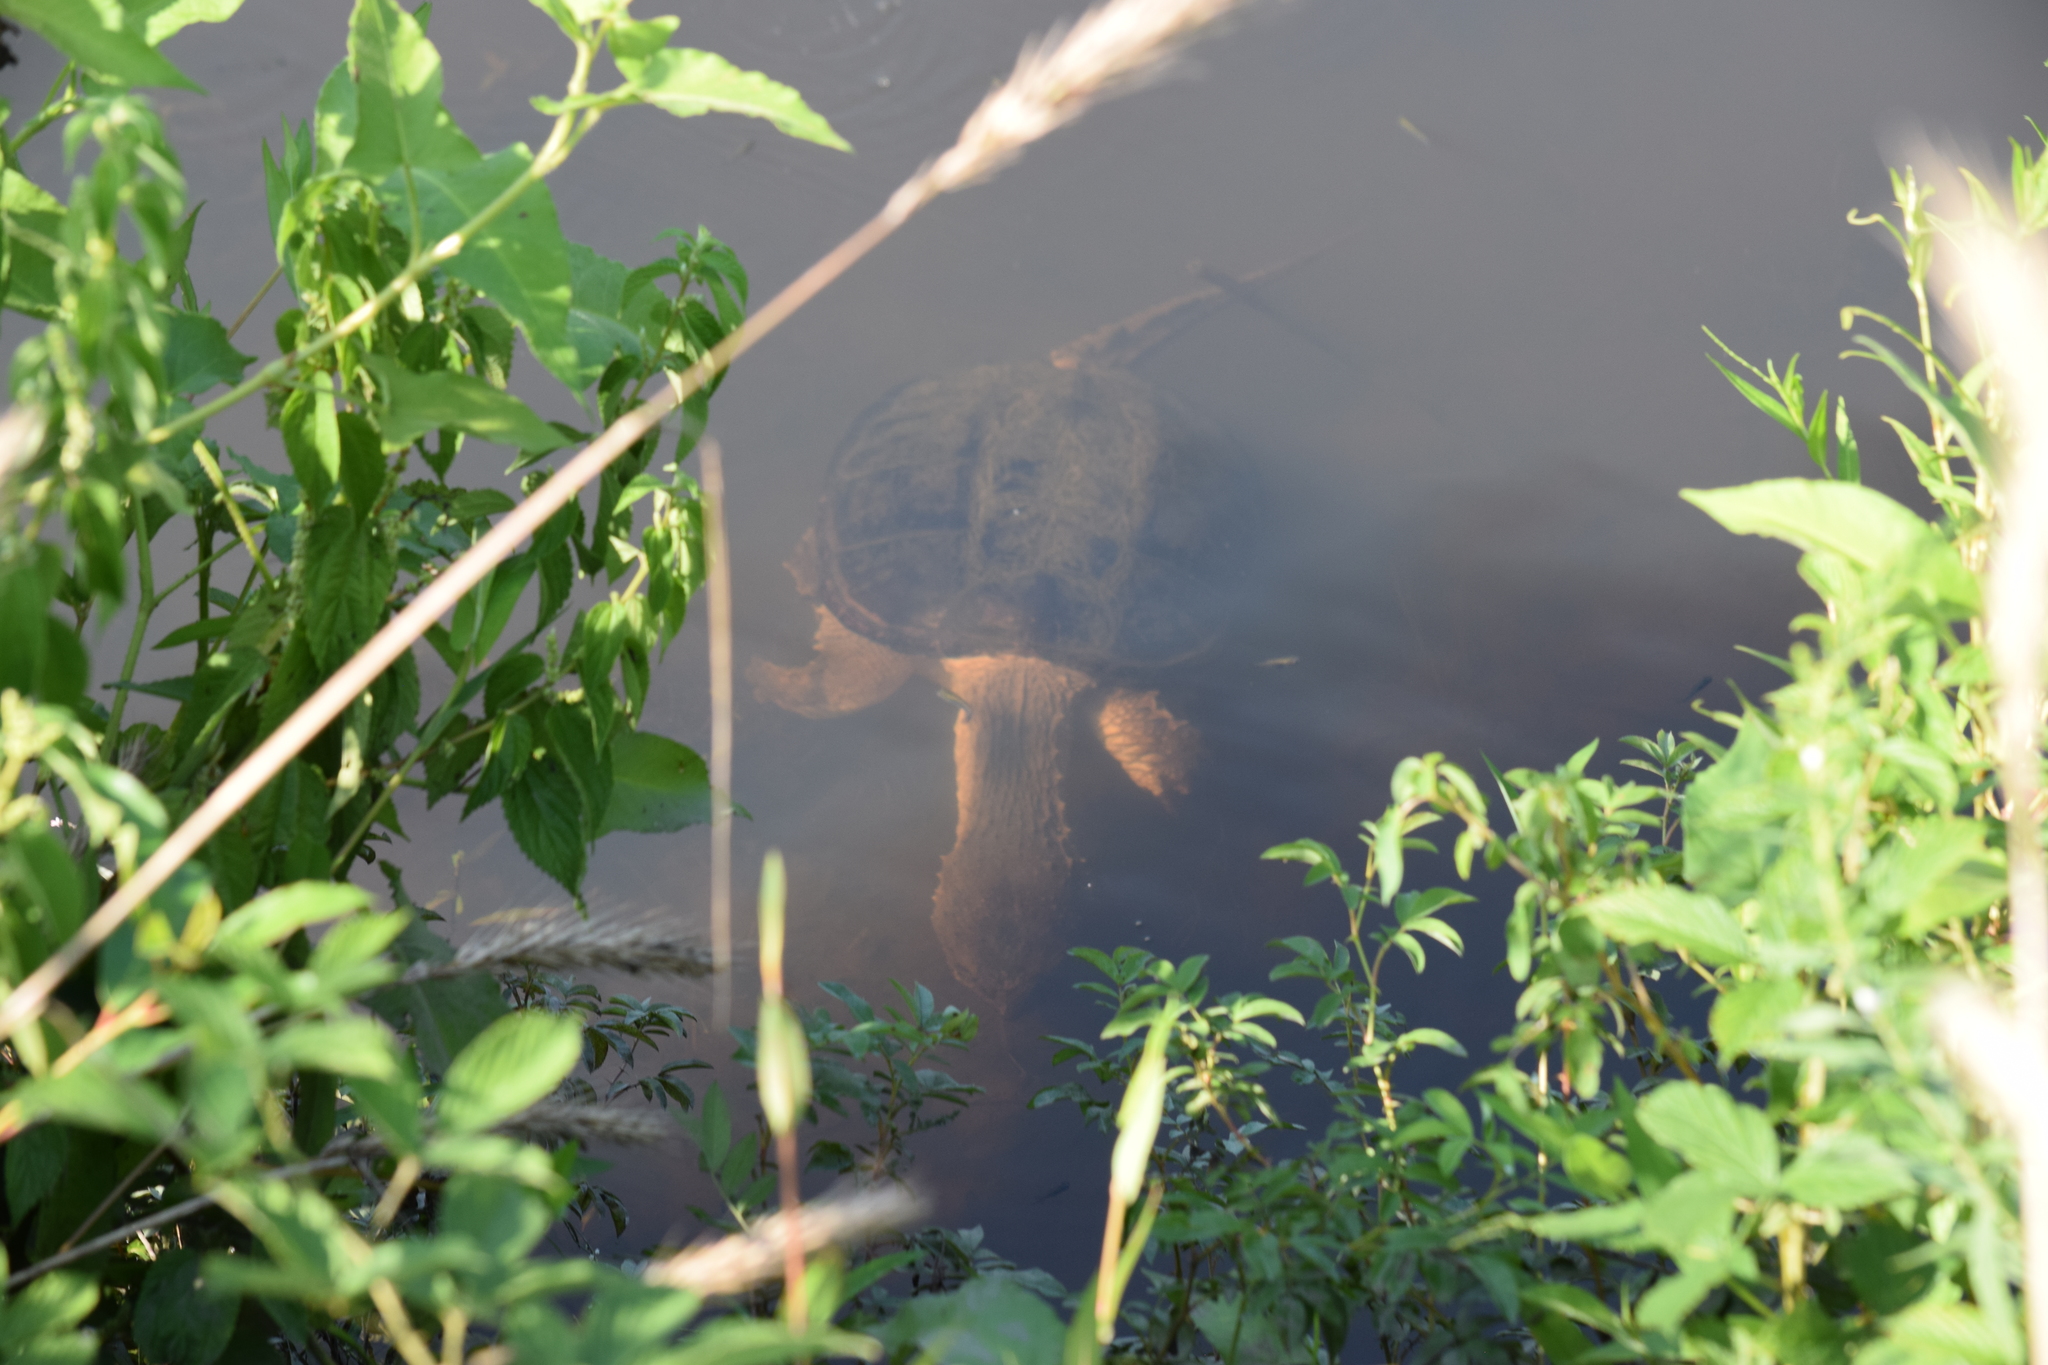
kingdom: Animalia
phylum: Chordata
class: Testudines
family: Chelydridae
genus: Chelydra
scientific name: Chelydra serpentina
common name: Common snapping turtle
